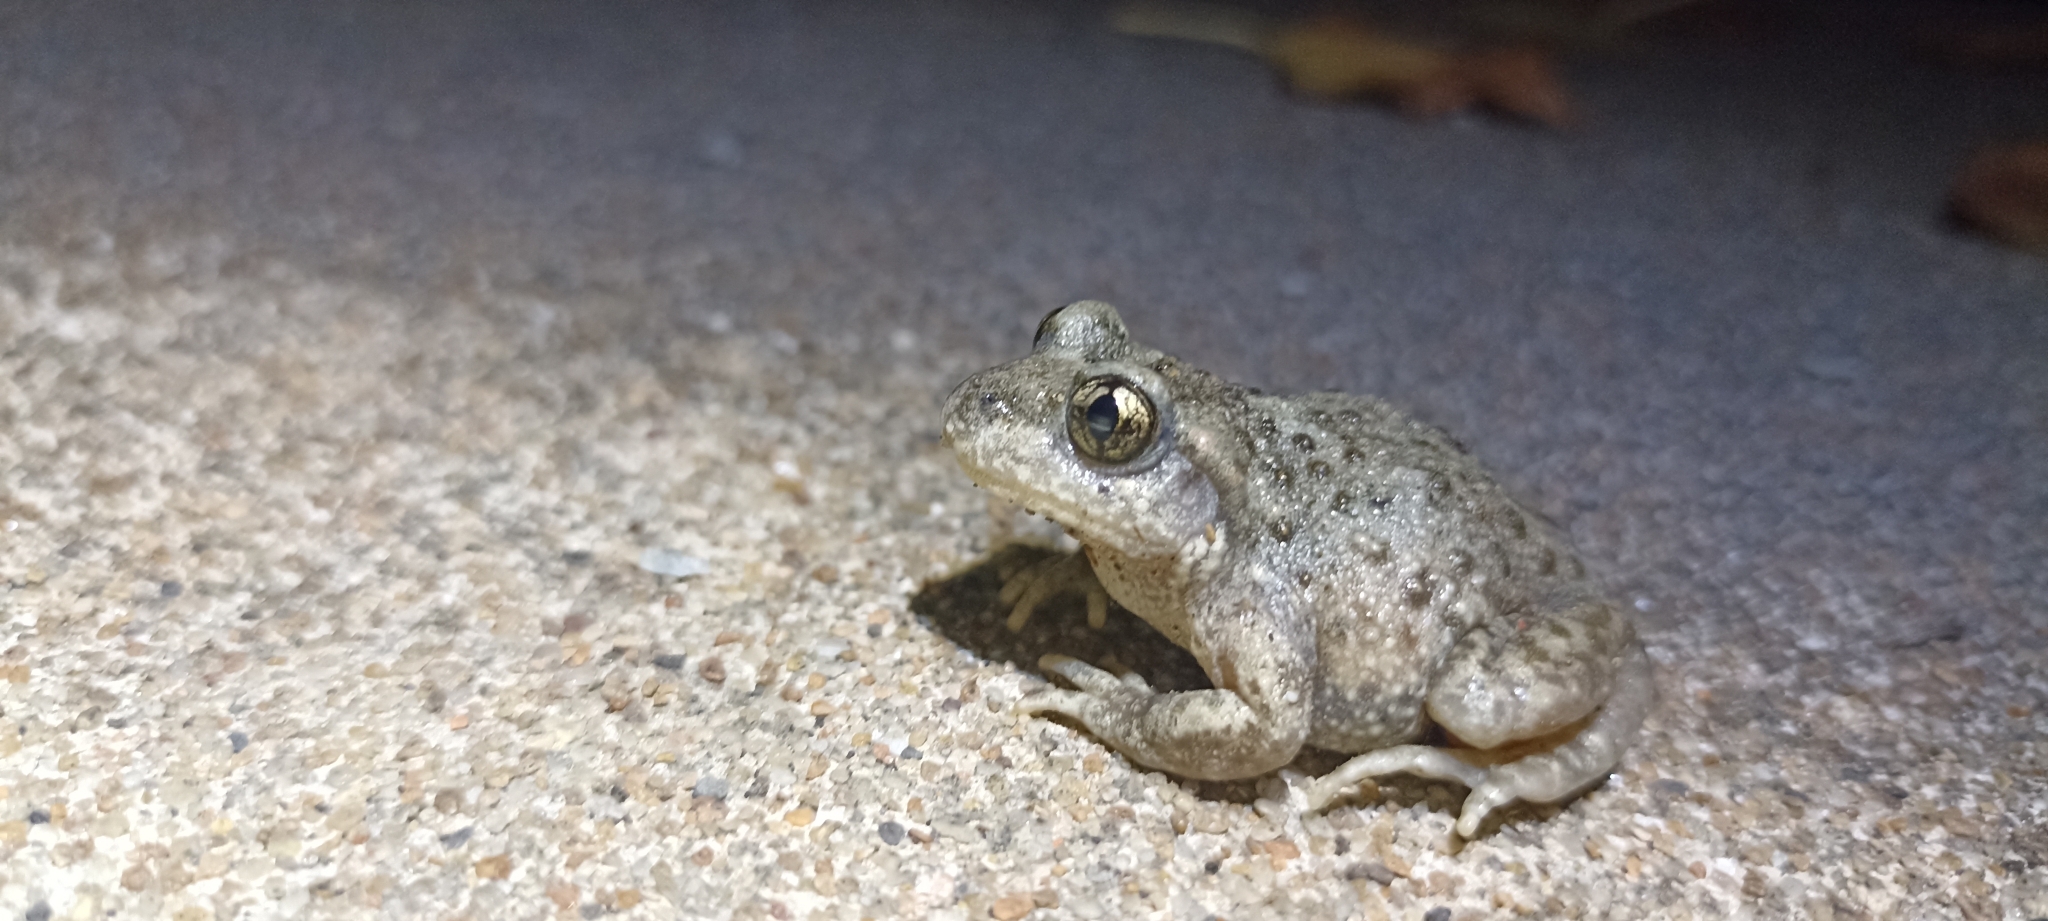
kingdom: Animalia
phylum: Chordata
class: Amphibia
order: Anura
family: Alytidae
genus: Alytes
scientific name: Alytes obstetricans
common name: Midwife toad
